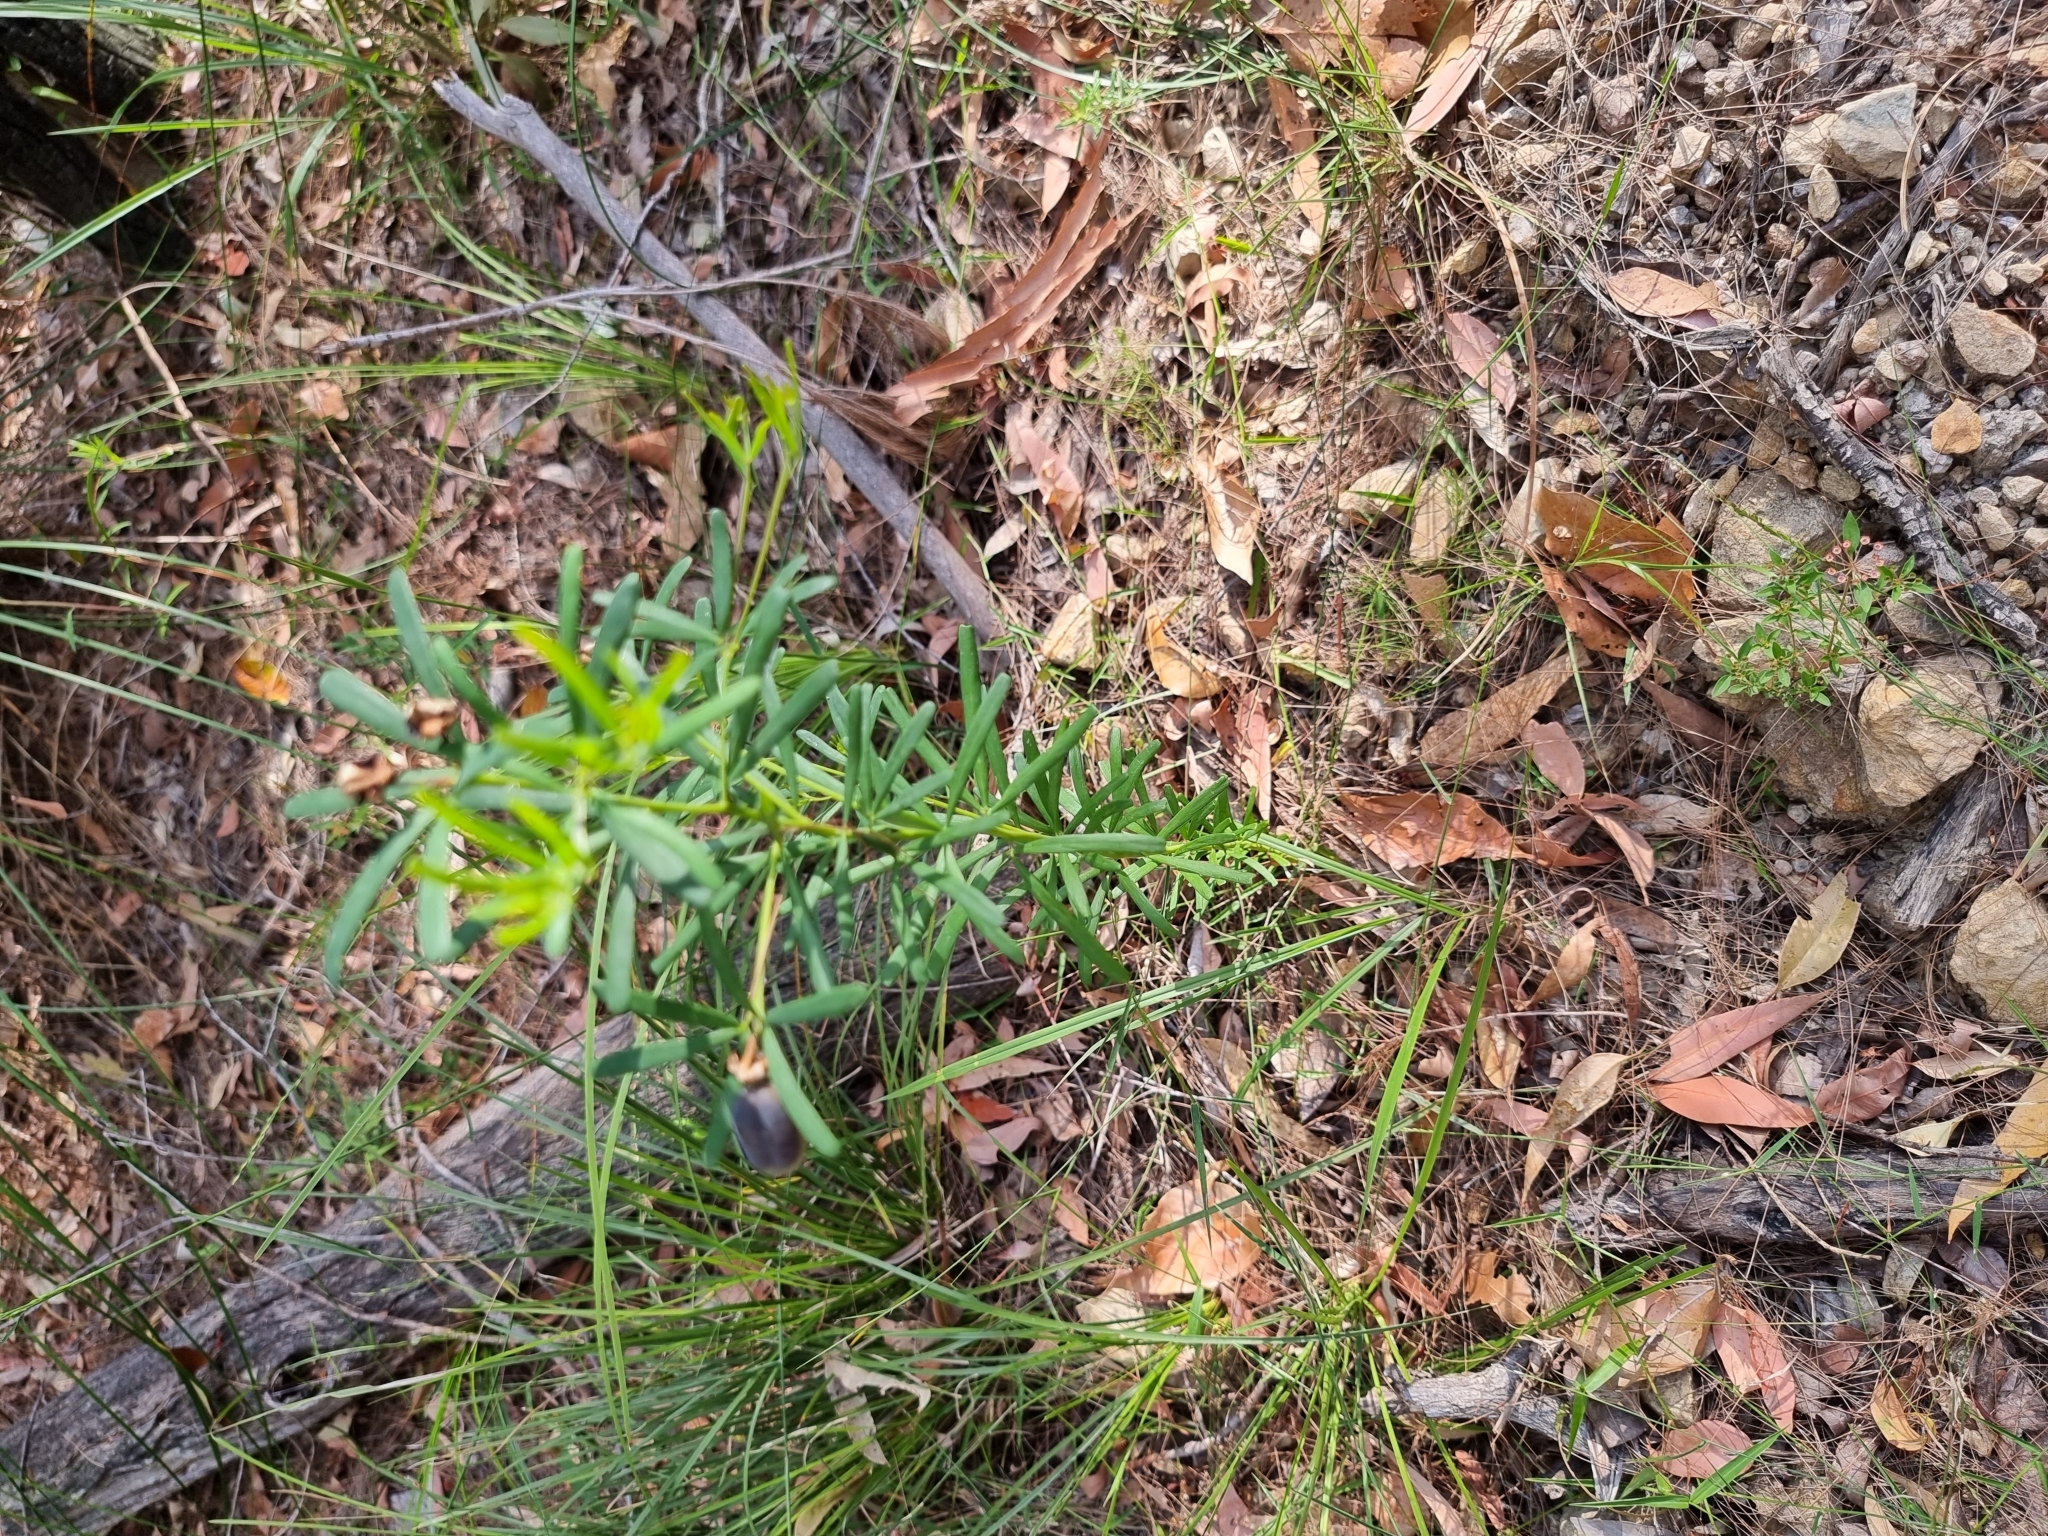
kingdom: Plantae
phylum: Tracheophyta
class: Magnoliopsida
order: Fabales
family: Fabaceae
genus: Gompholobium
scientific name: Gompholobium latifolium
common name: Broadleaf wedge-pea
